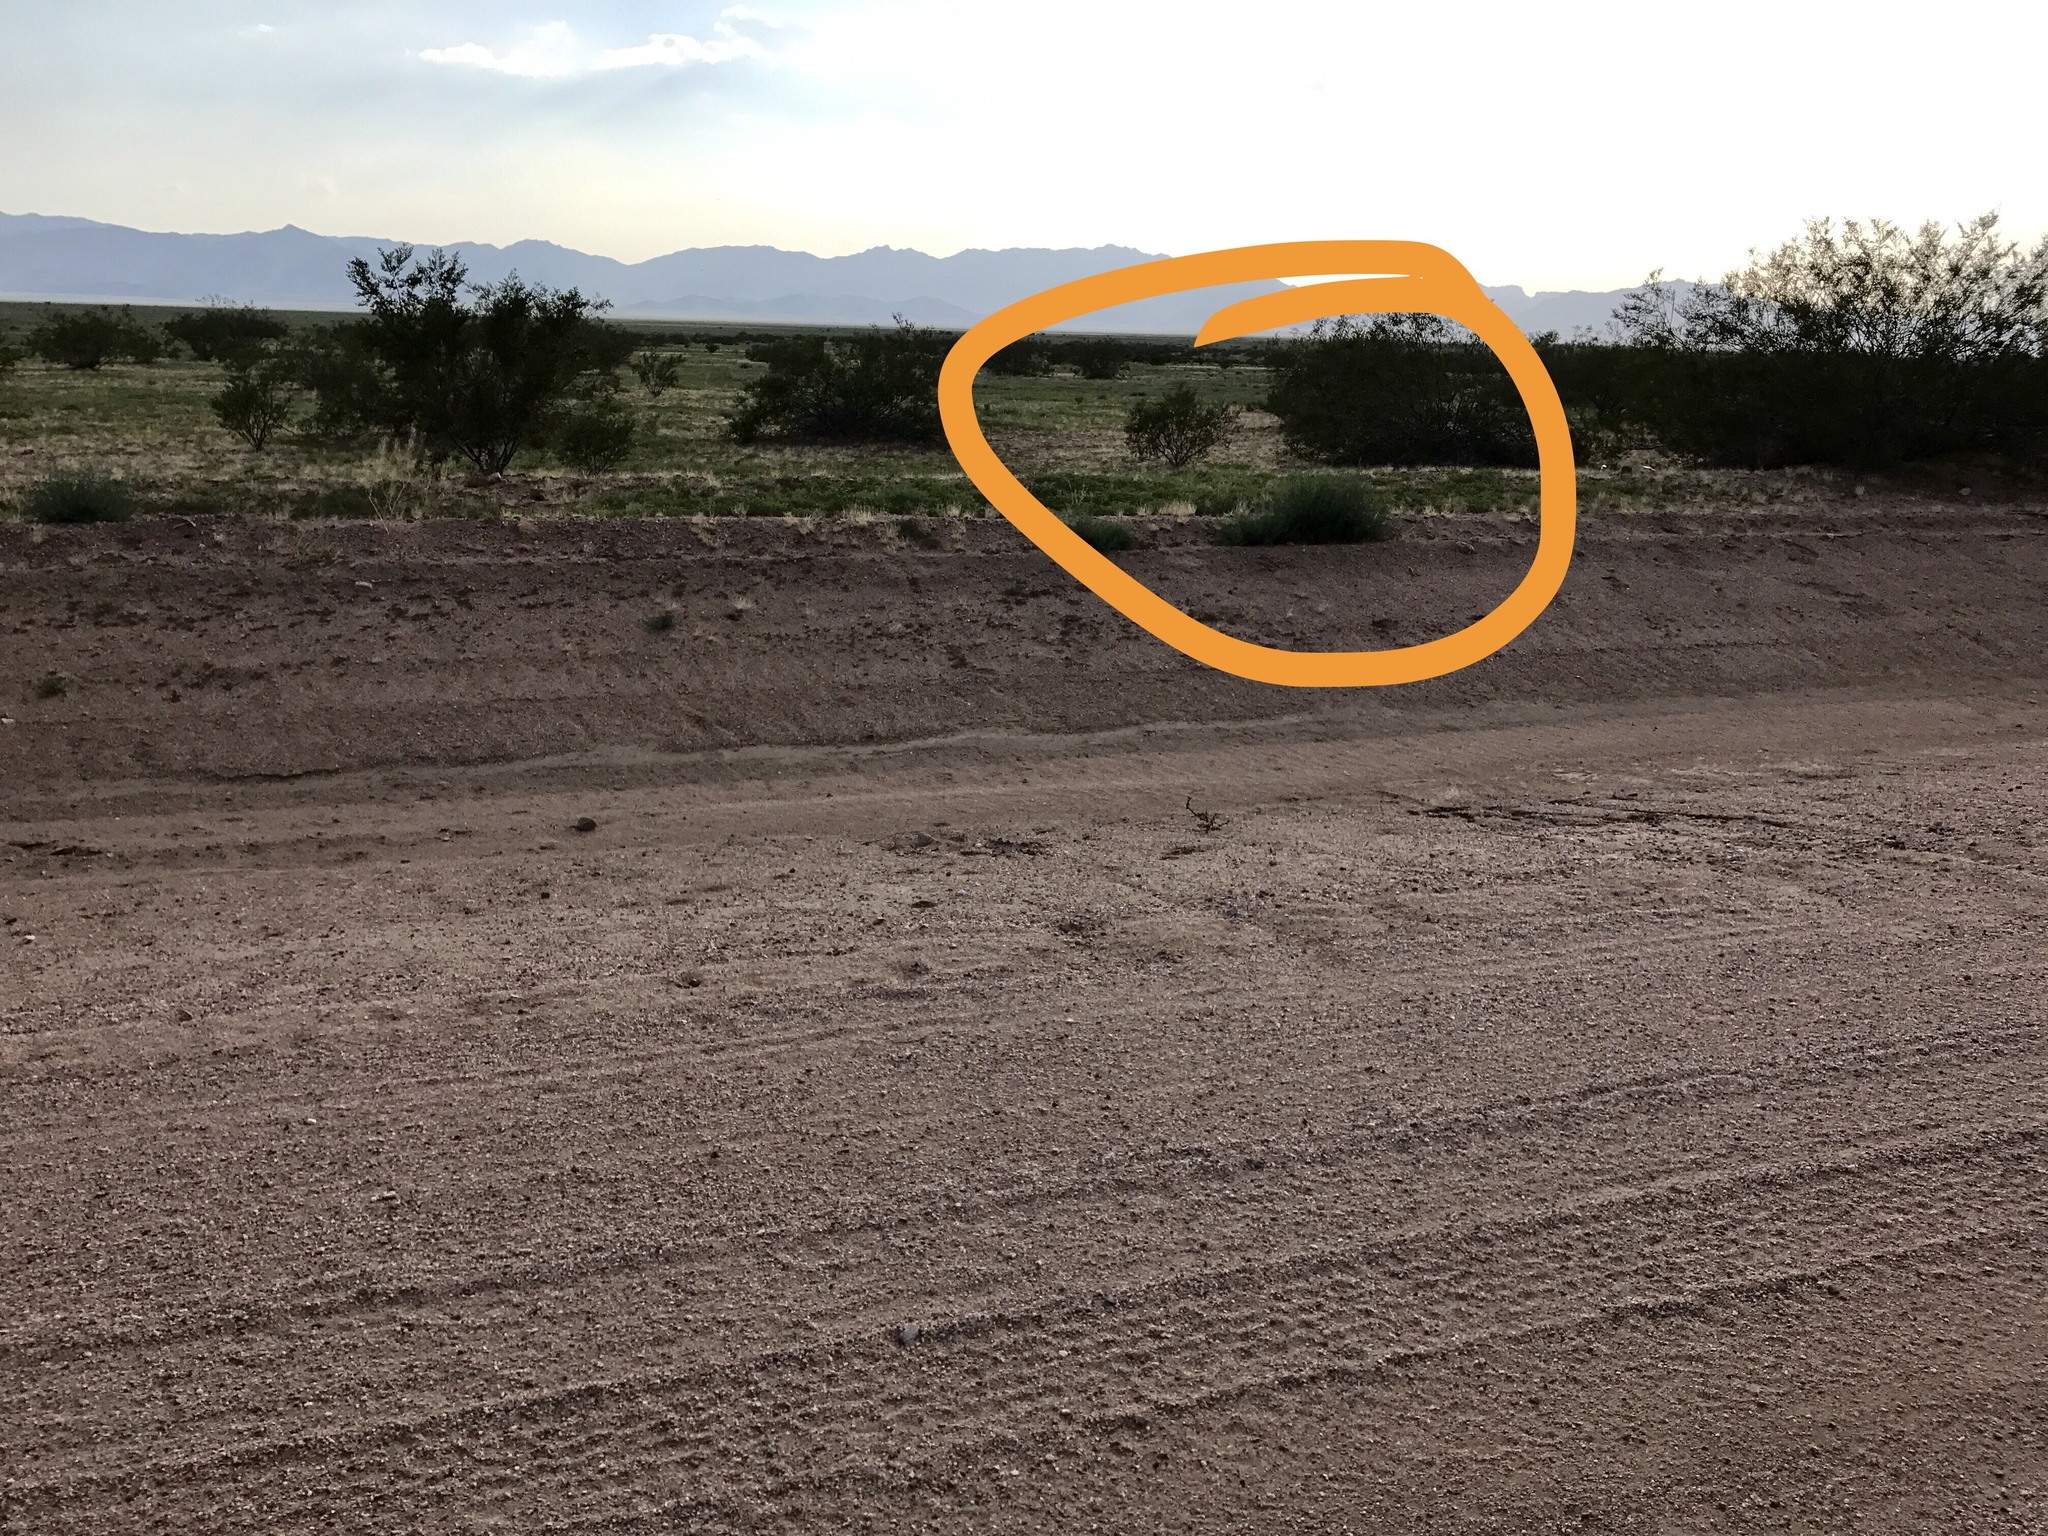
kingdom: Animalia
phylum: Chordata
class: Mammalia
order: Carnivora
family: Mustelidae
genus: Taxidea
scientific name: Taxidea taxus
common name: American badger
